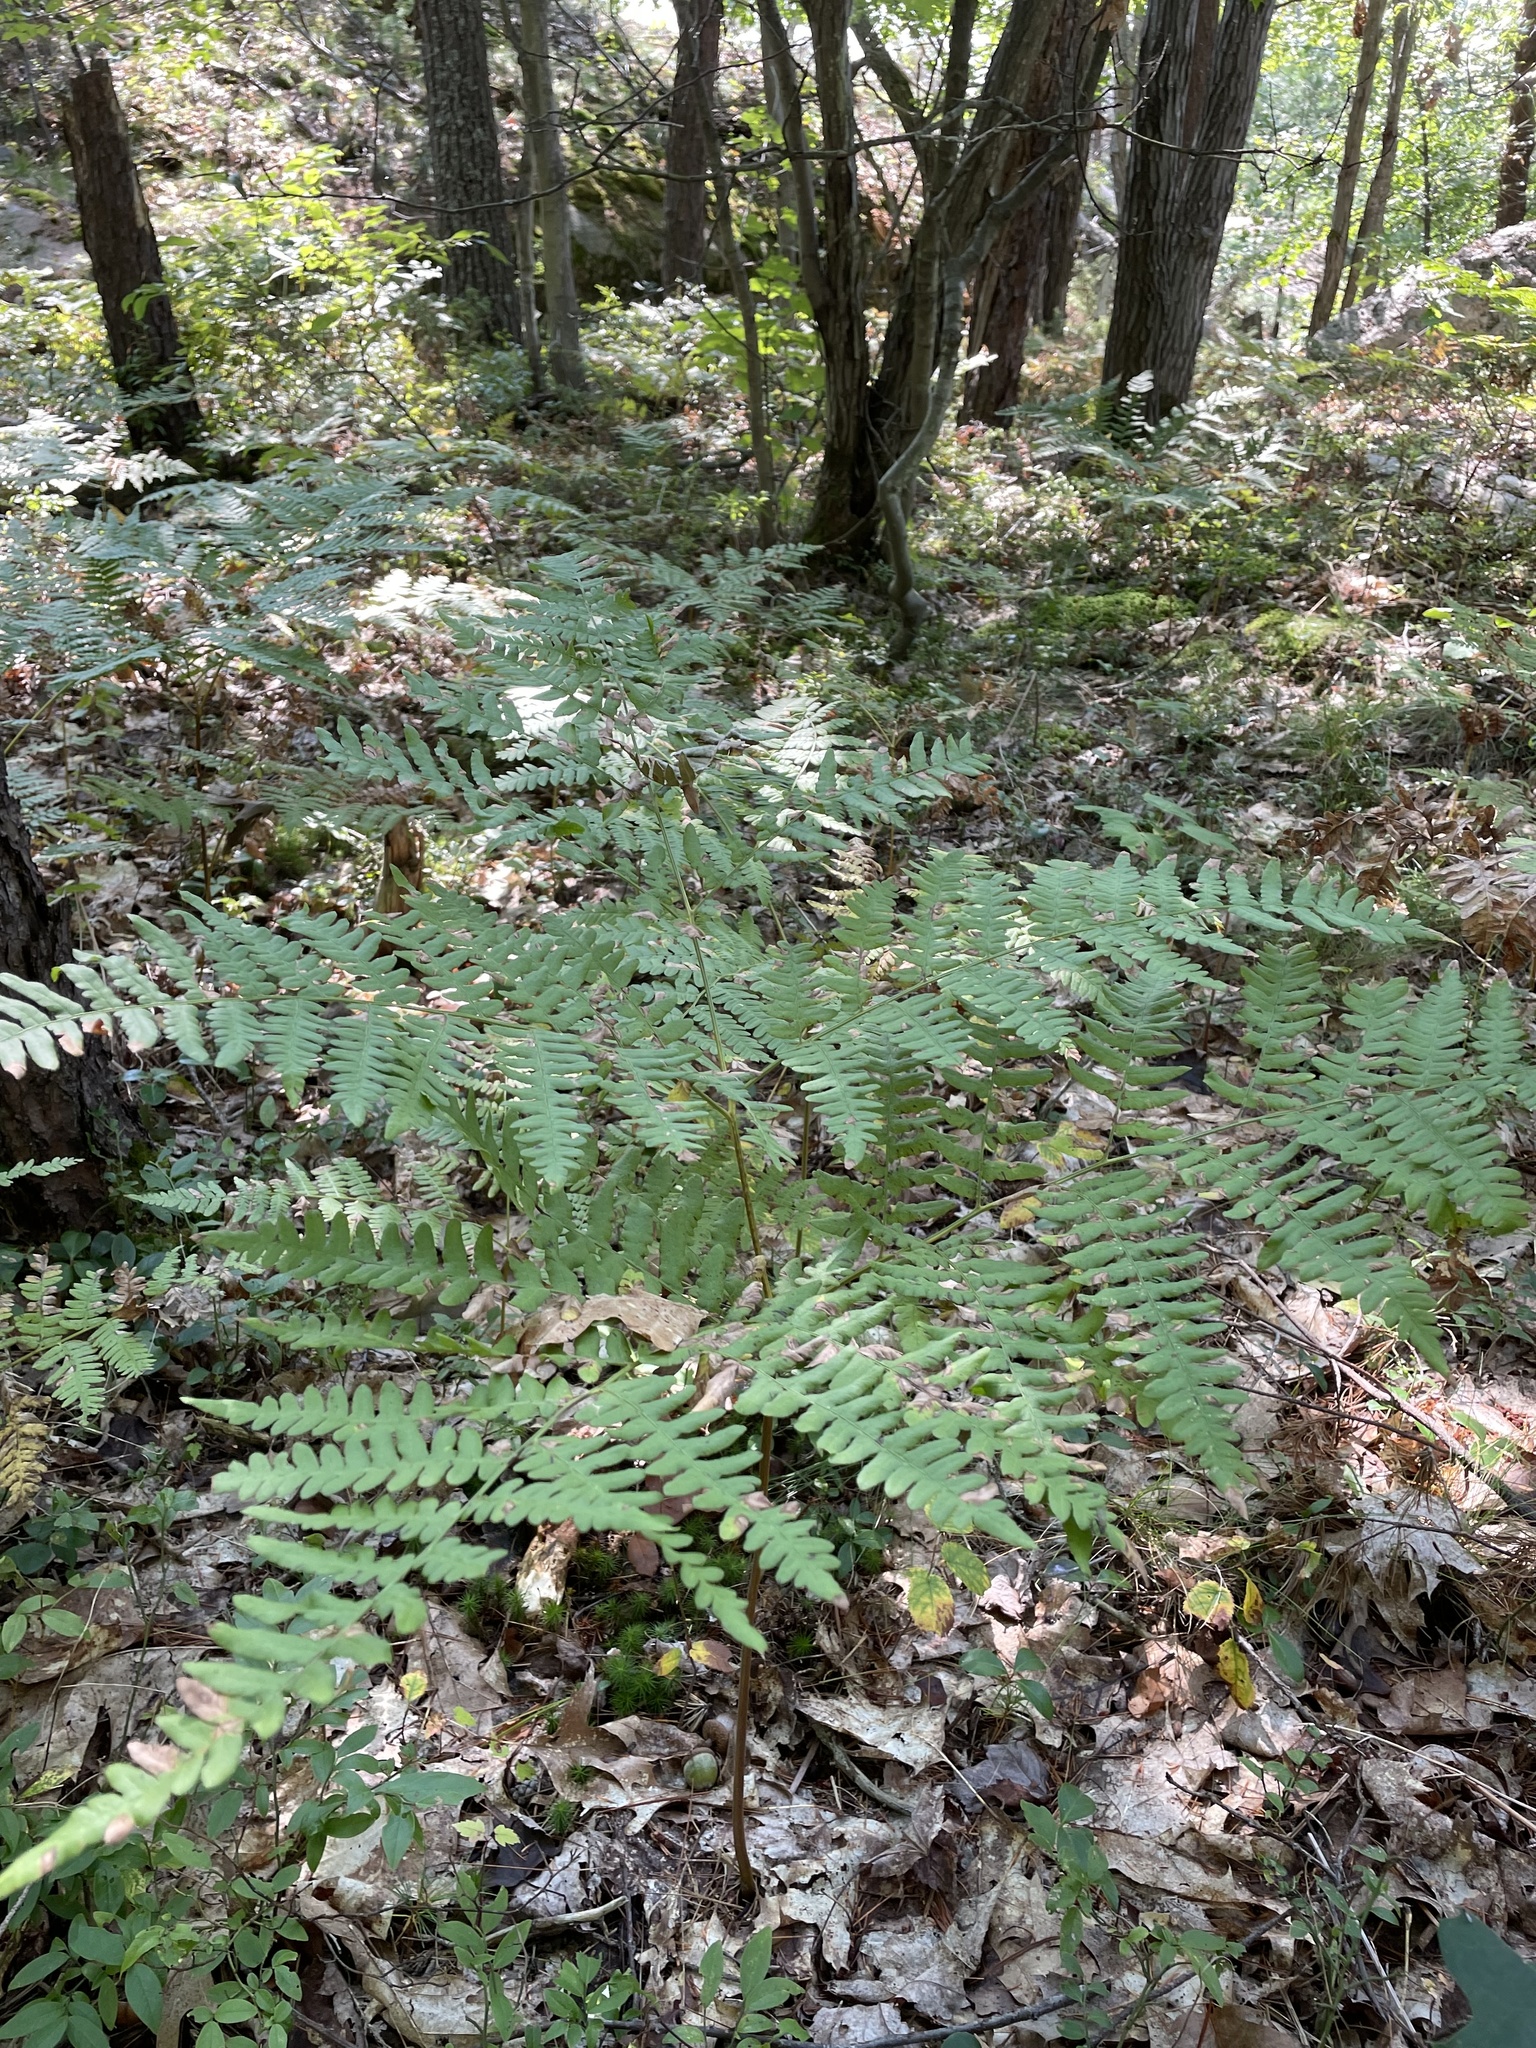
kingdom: Plantae
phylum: Tracheophyta
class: Polypodiopsida
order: Polypodiales
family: Dennstaedtiaceae
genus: Pteridium
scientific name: Pteridium aquilinum
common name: Bracken
